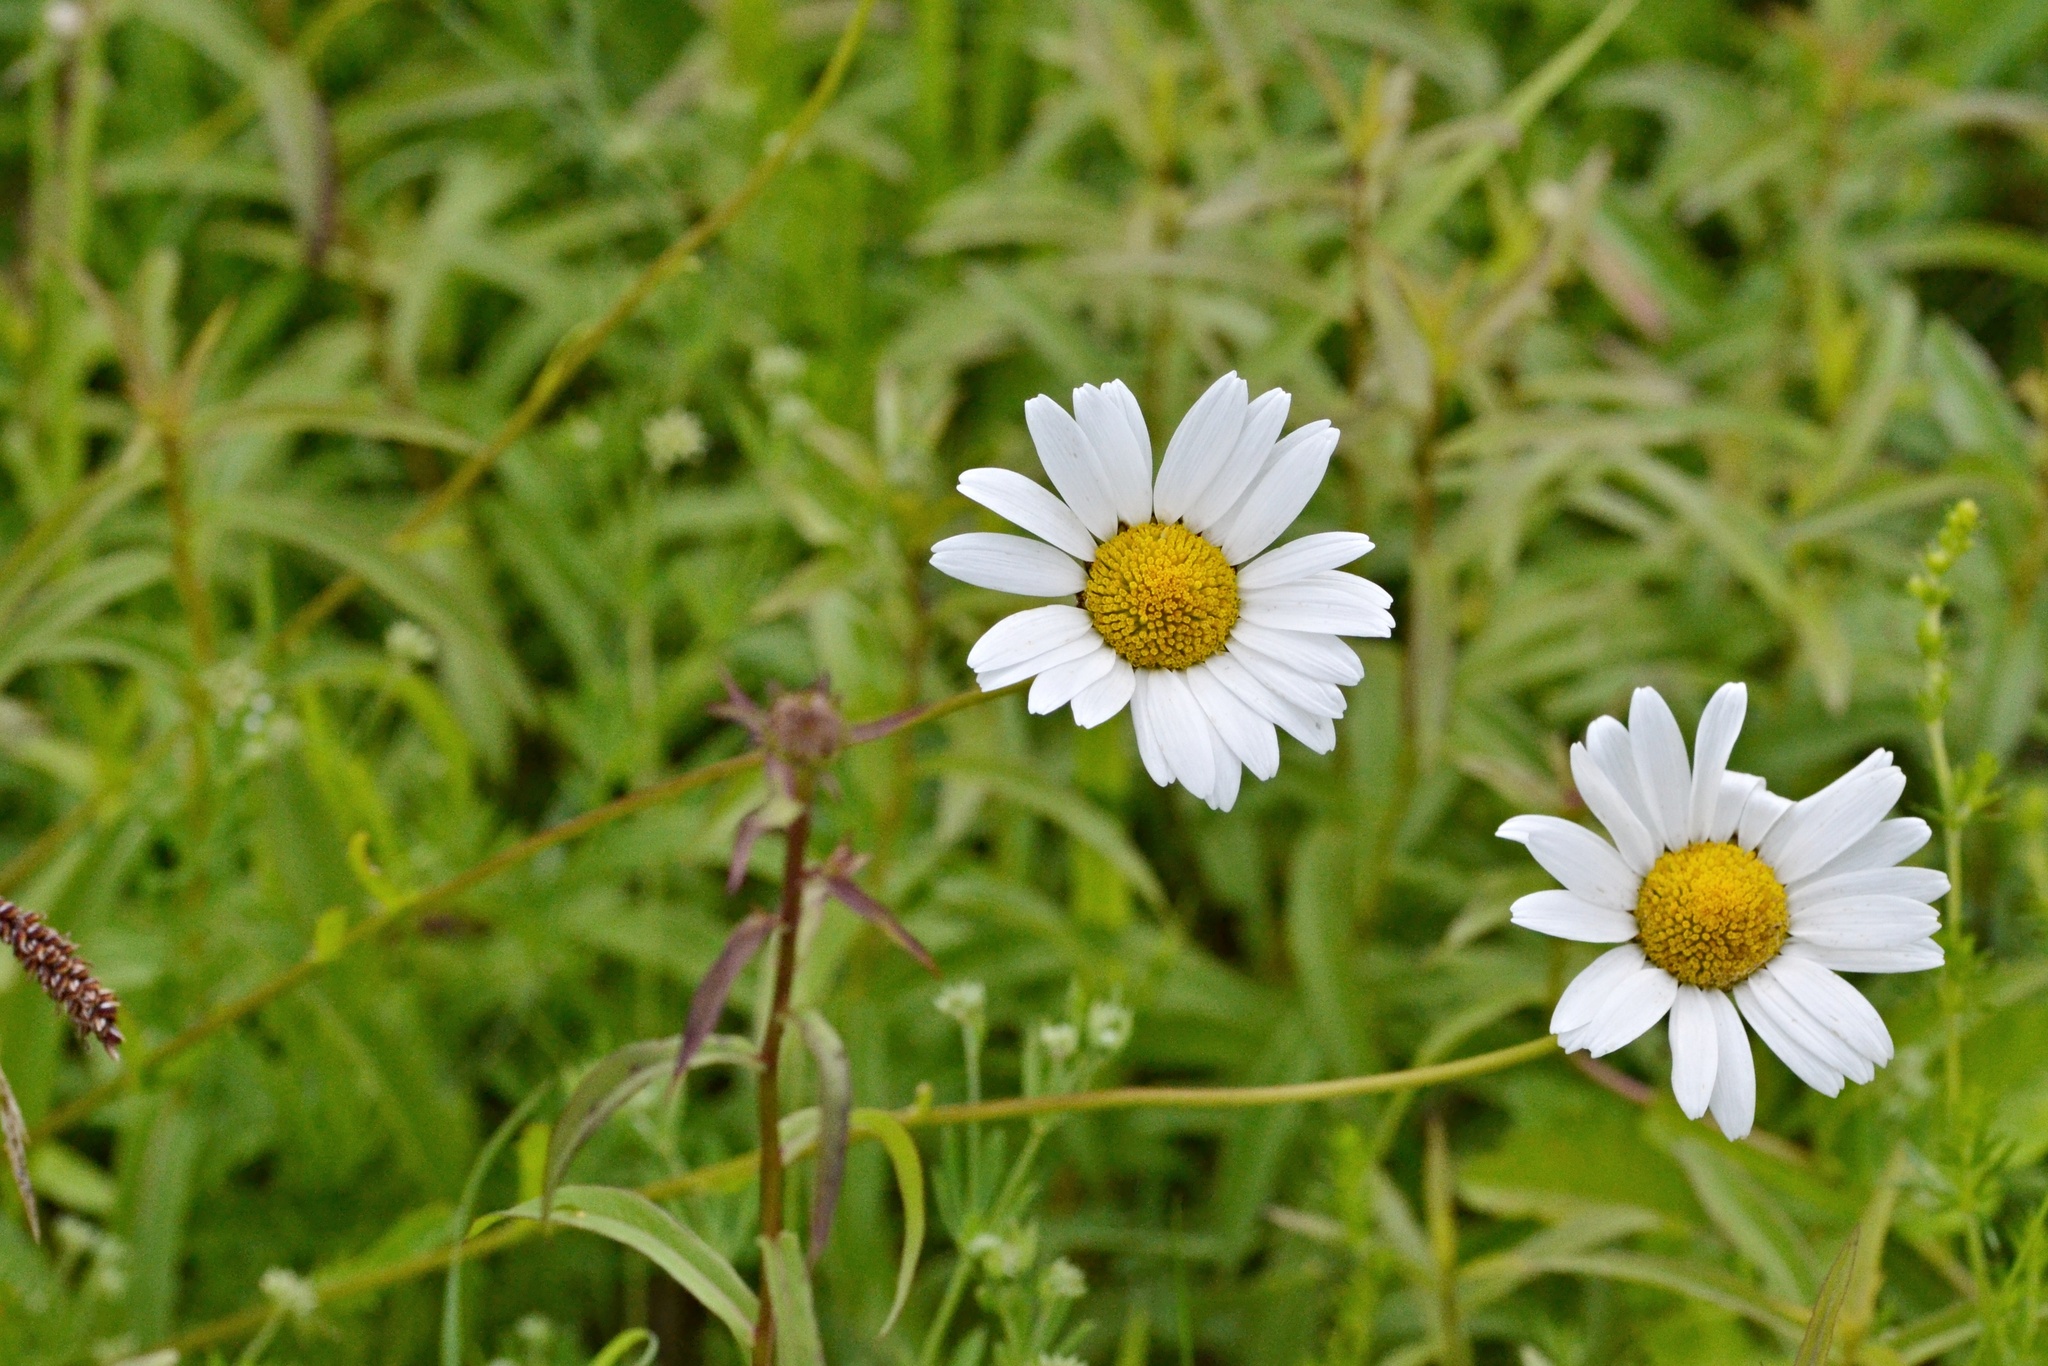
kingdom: Plantae
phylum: Tracheophyta
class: Magnoliopsida
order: Asterales
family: Asteraceae
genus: Leucanthemum
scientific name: Leucanthemum vulgare
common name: Oxeye daisy
